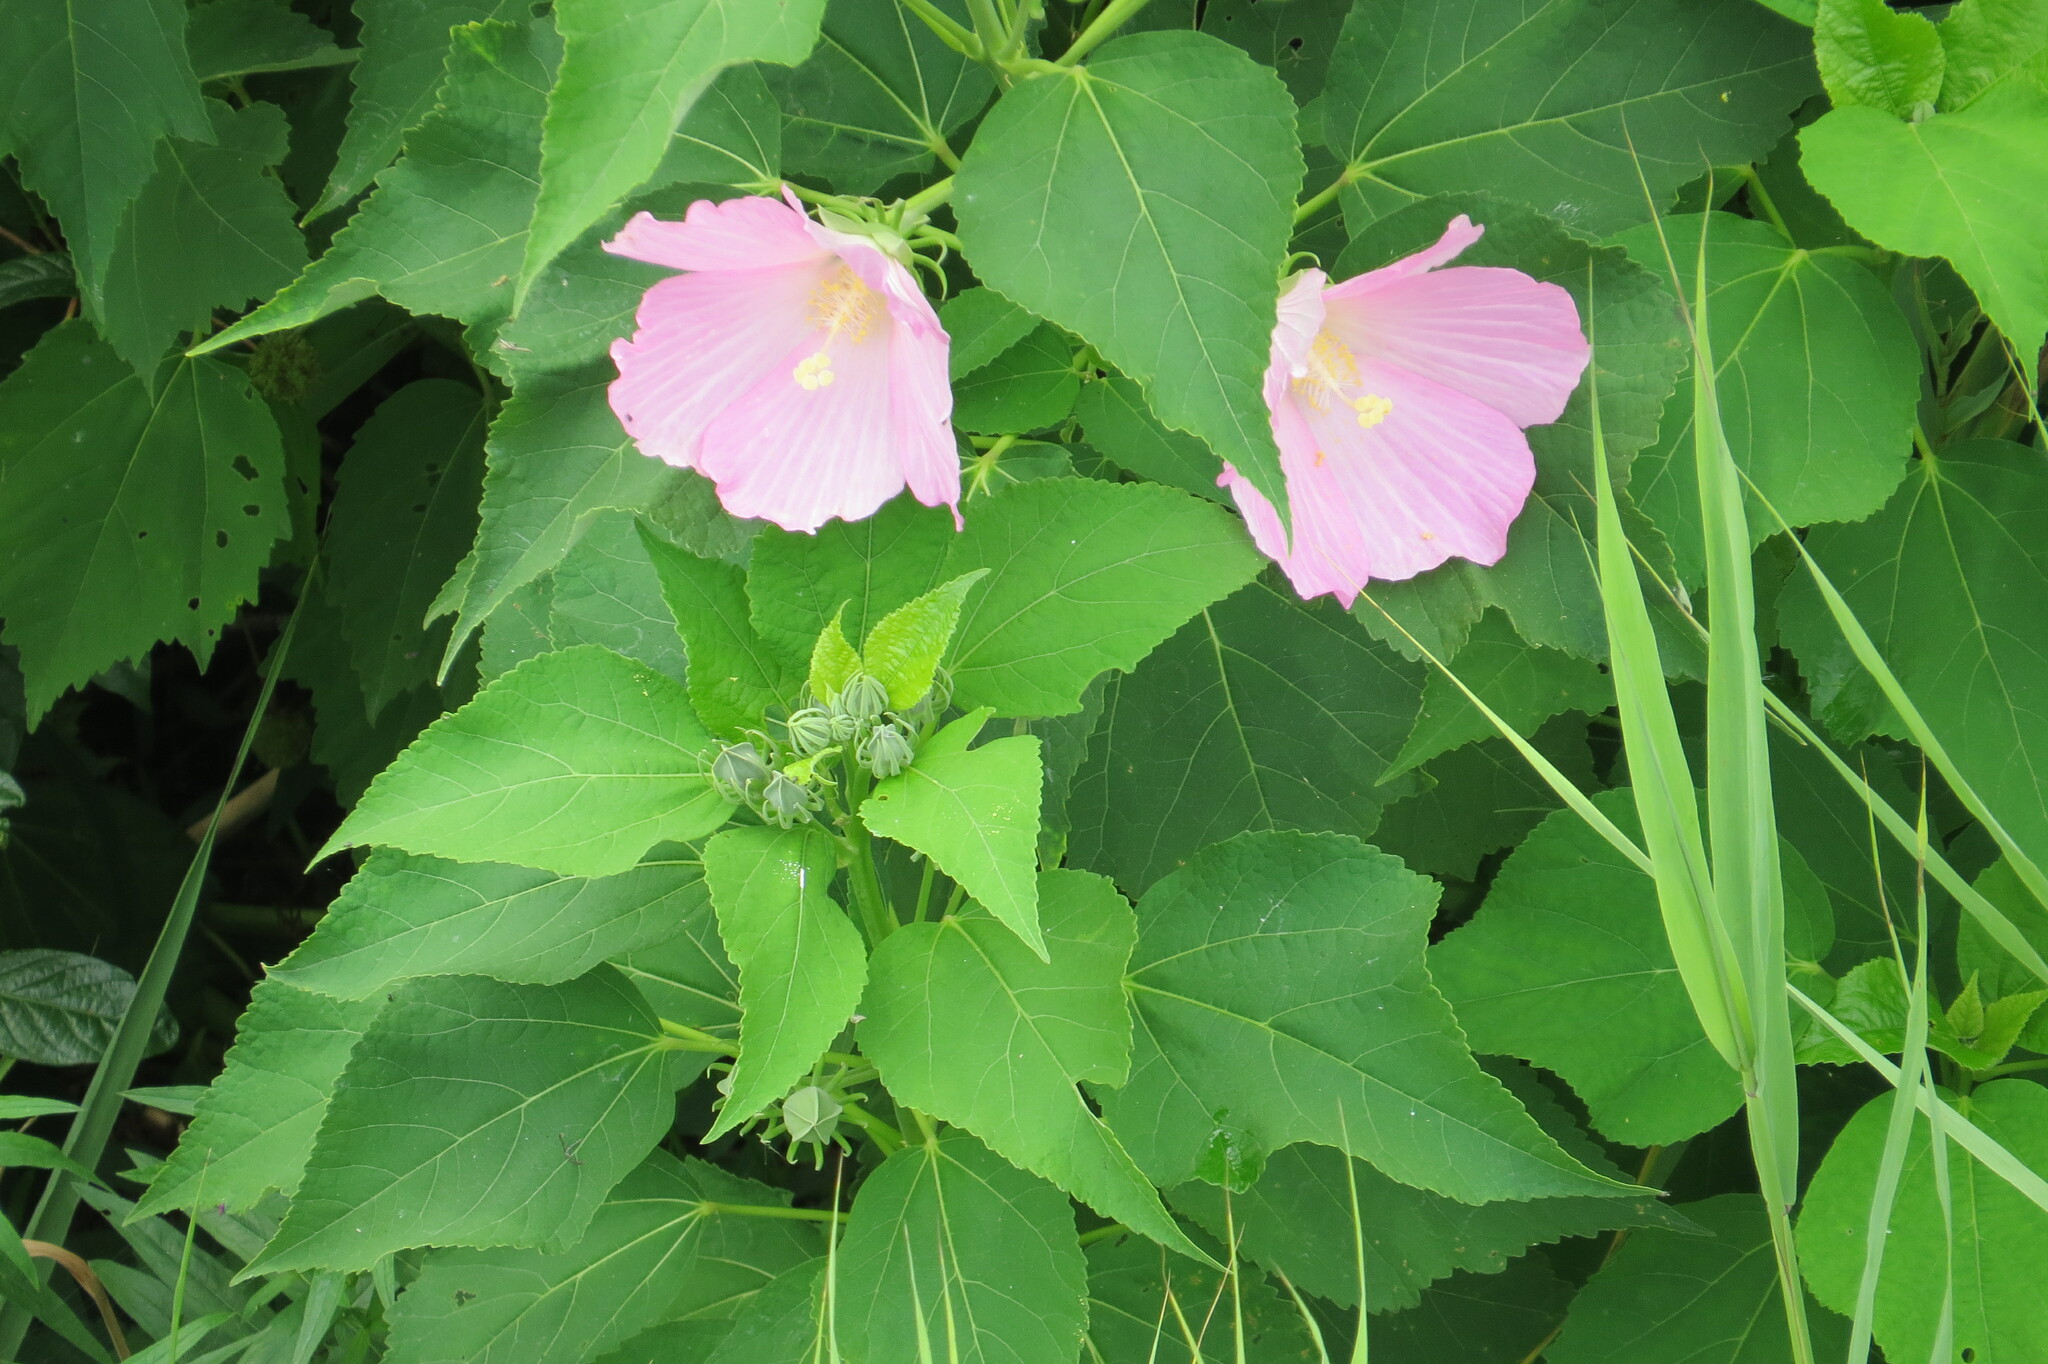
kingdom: Plantae
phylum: Tracheophyta
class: Magnoliopsida
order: Malvales
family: Malvaceae
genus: Hibiscus
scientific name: Hibiscus moscheutos
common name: Common rose-mallow
